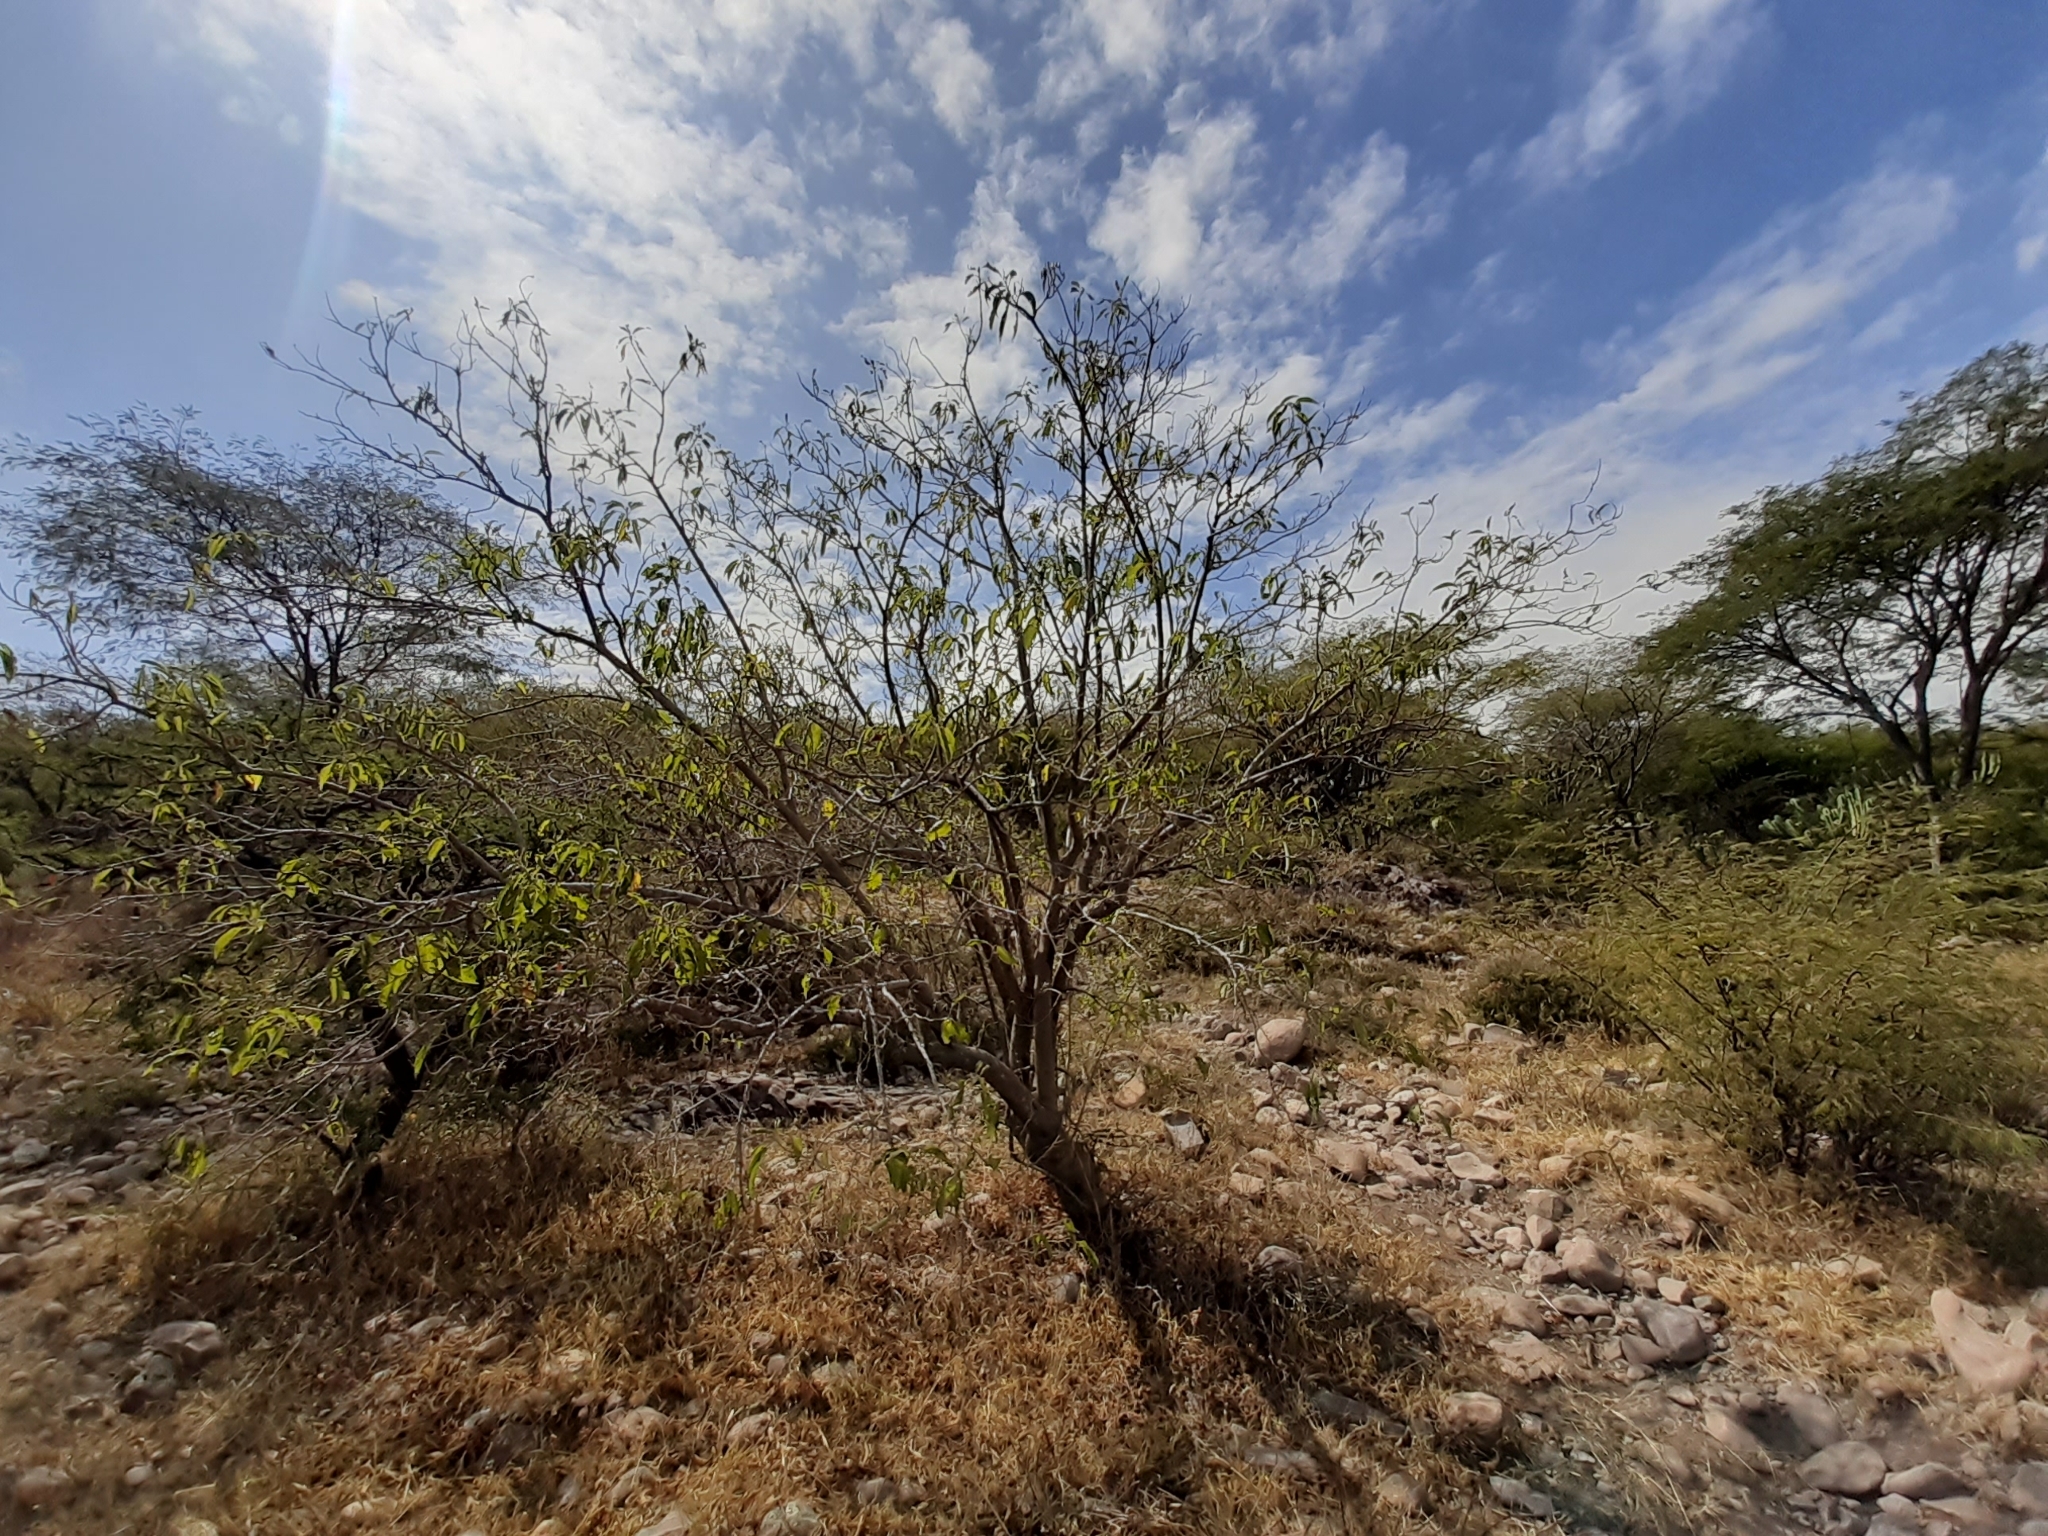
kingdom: Plantae
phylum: Tracheophyta
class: Magnoliopsida
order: Solanales
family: Convolvulaceae
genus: Ipomoea
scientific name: Ipomoea murucoides
